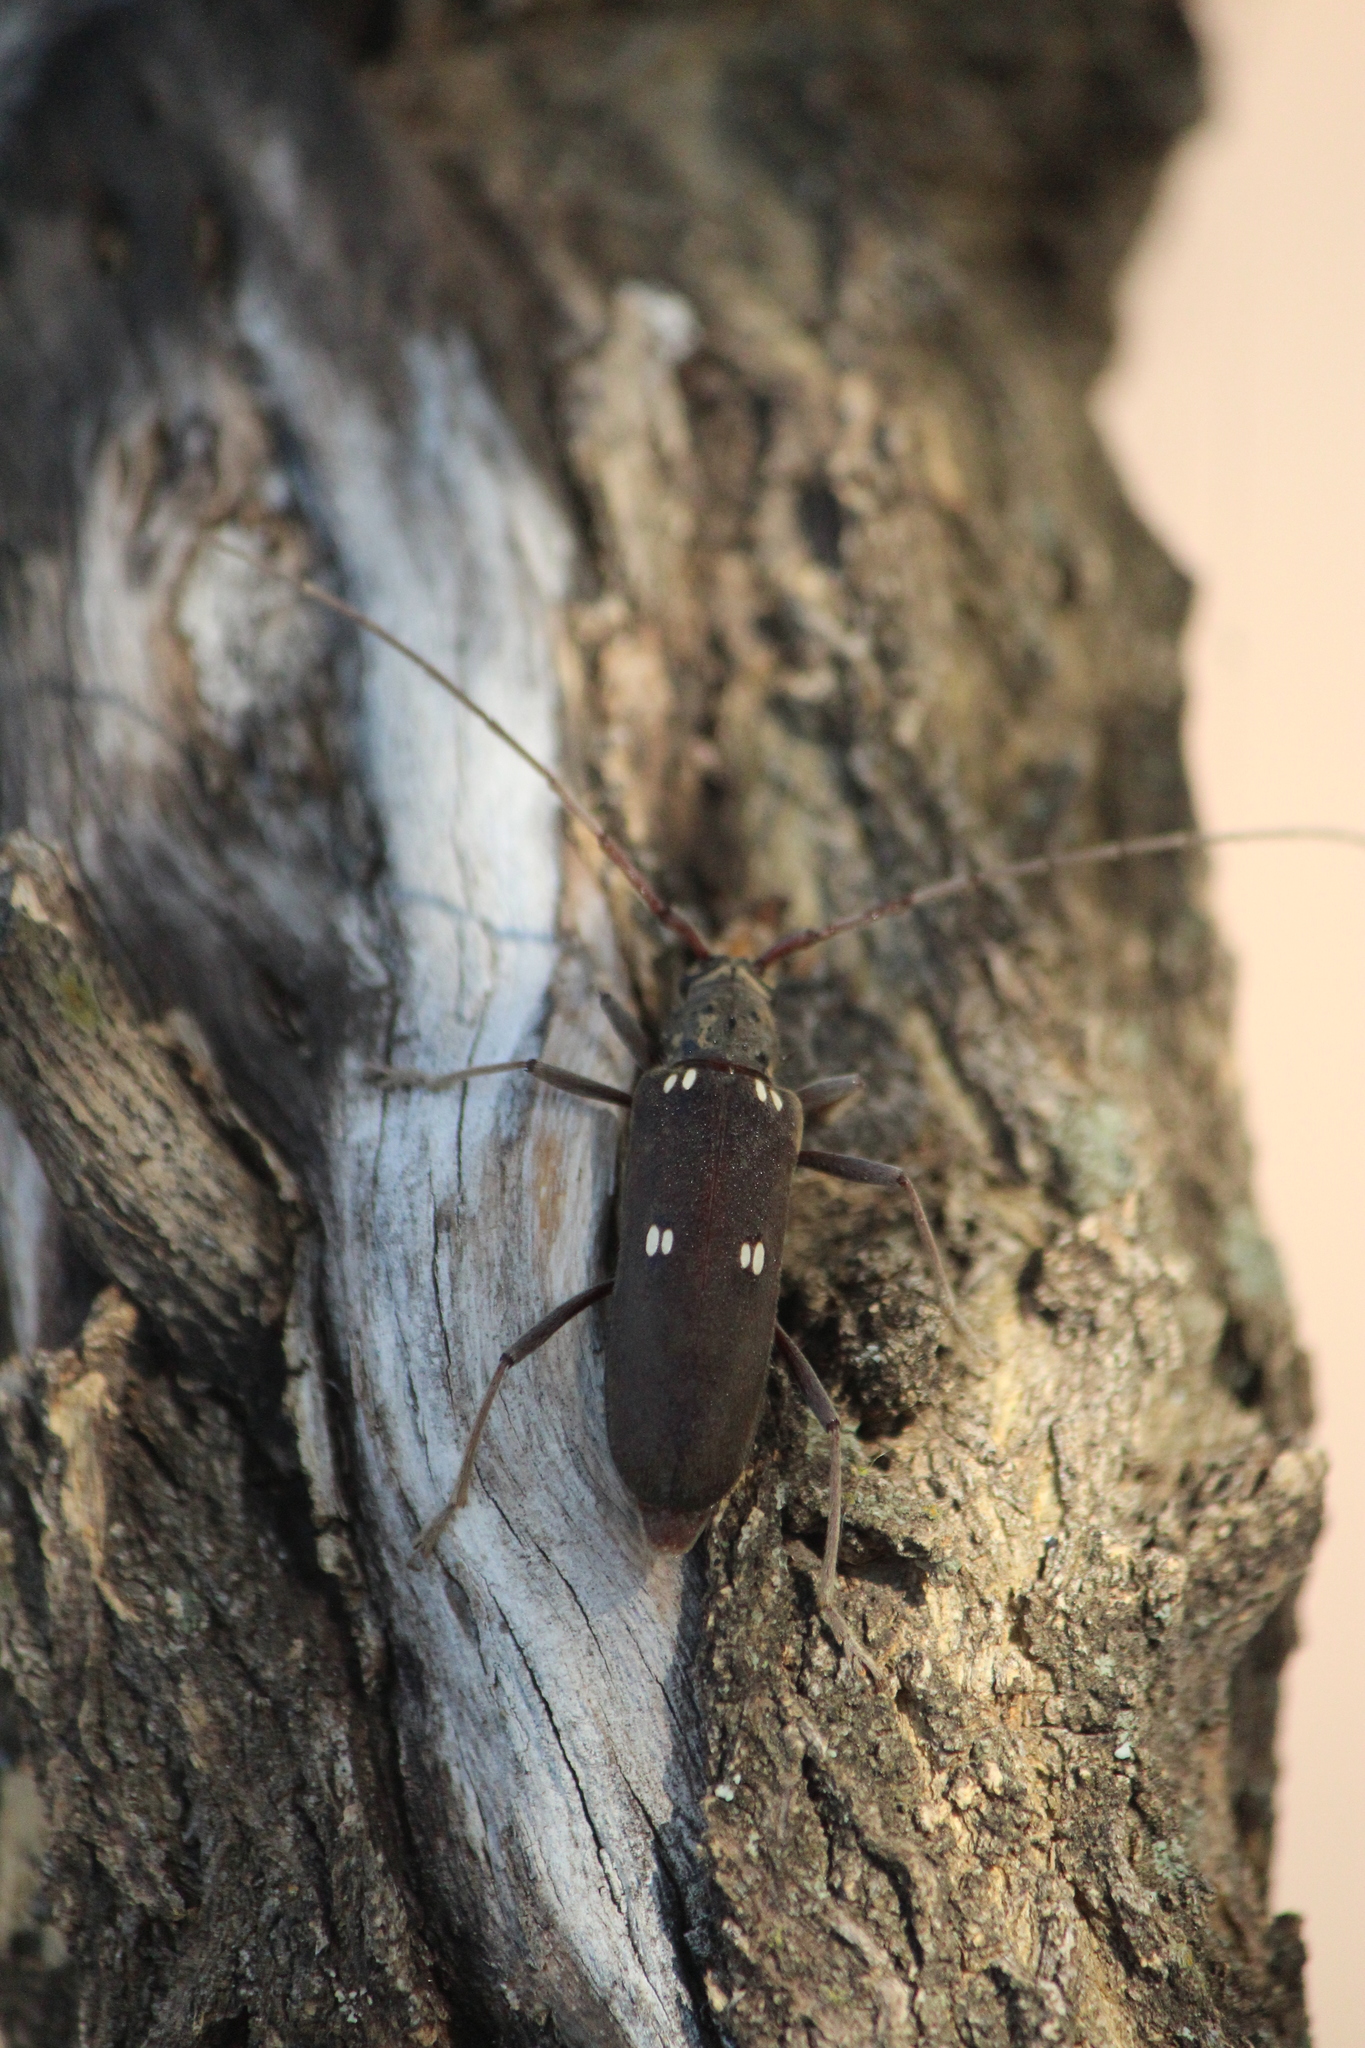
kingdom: Animalia
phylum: Arthropoda
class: Insecta
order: Coleoptera
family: Cerambycidae
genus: Susuacanga
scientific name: Susuacanga patruelis
